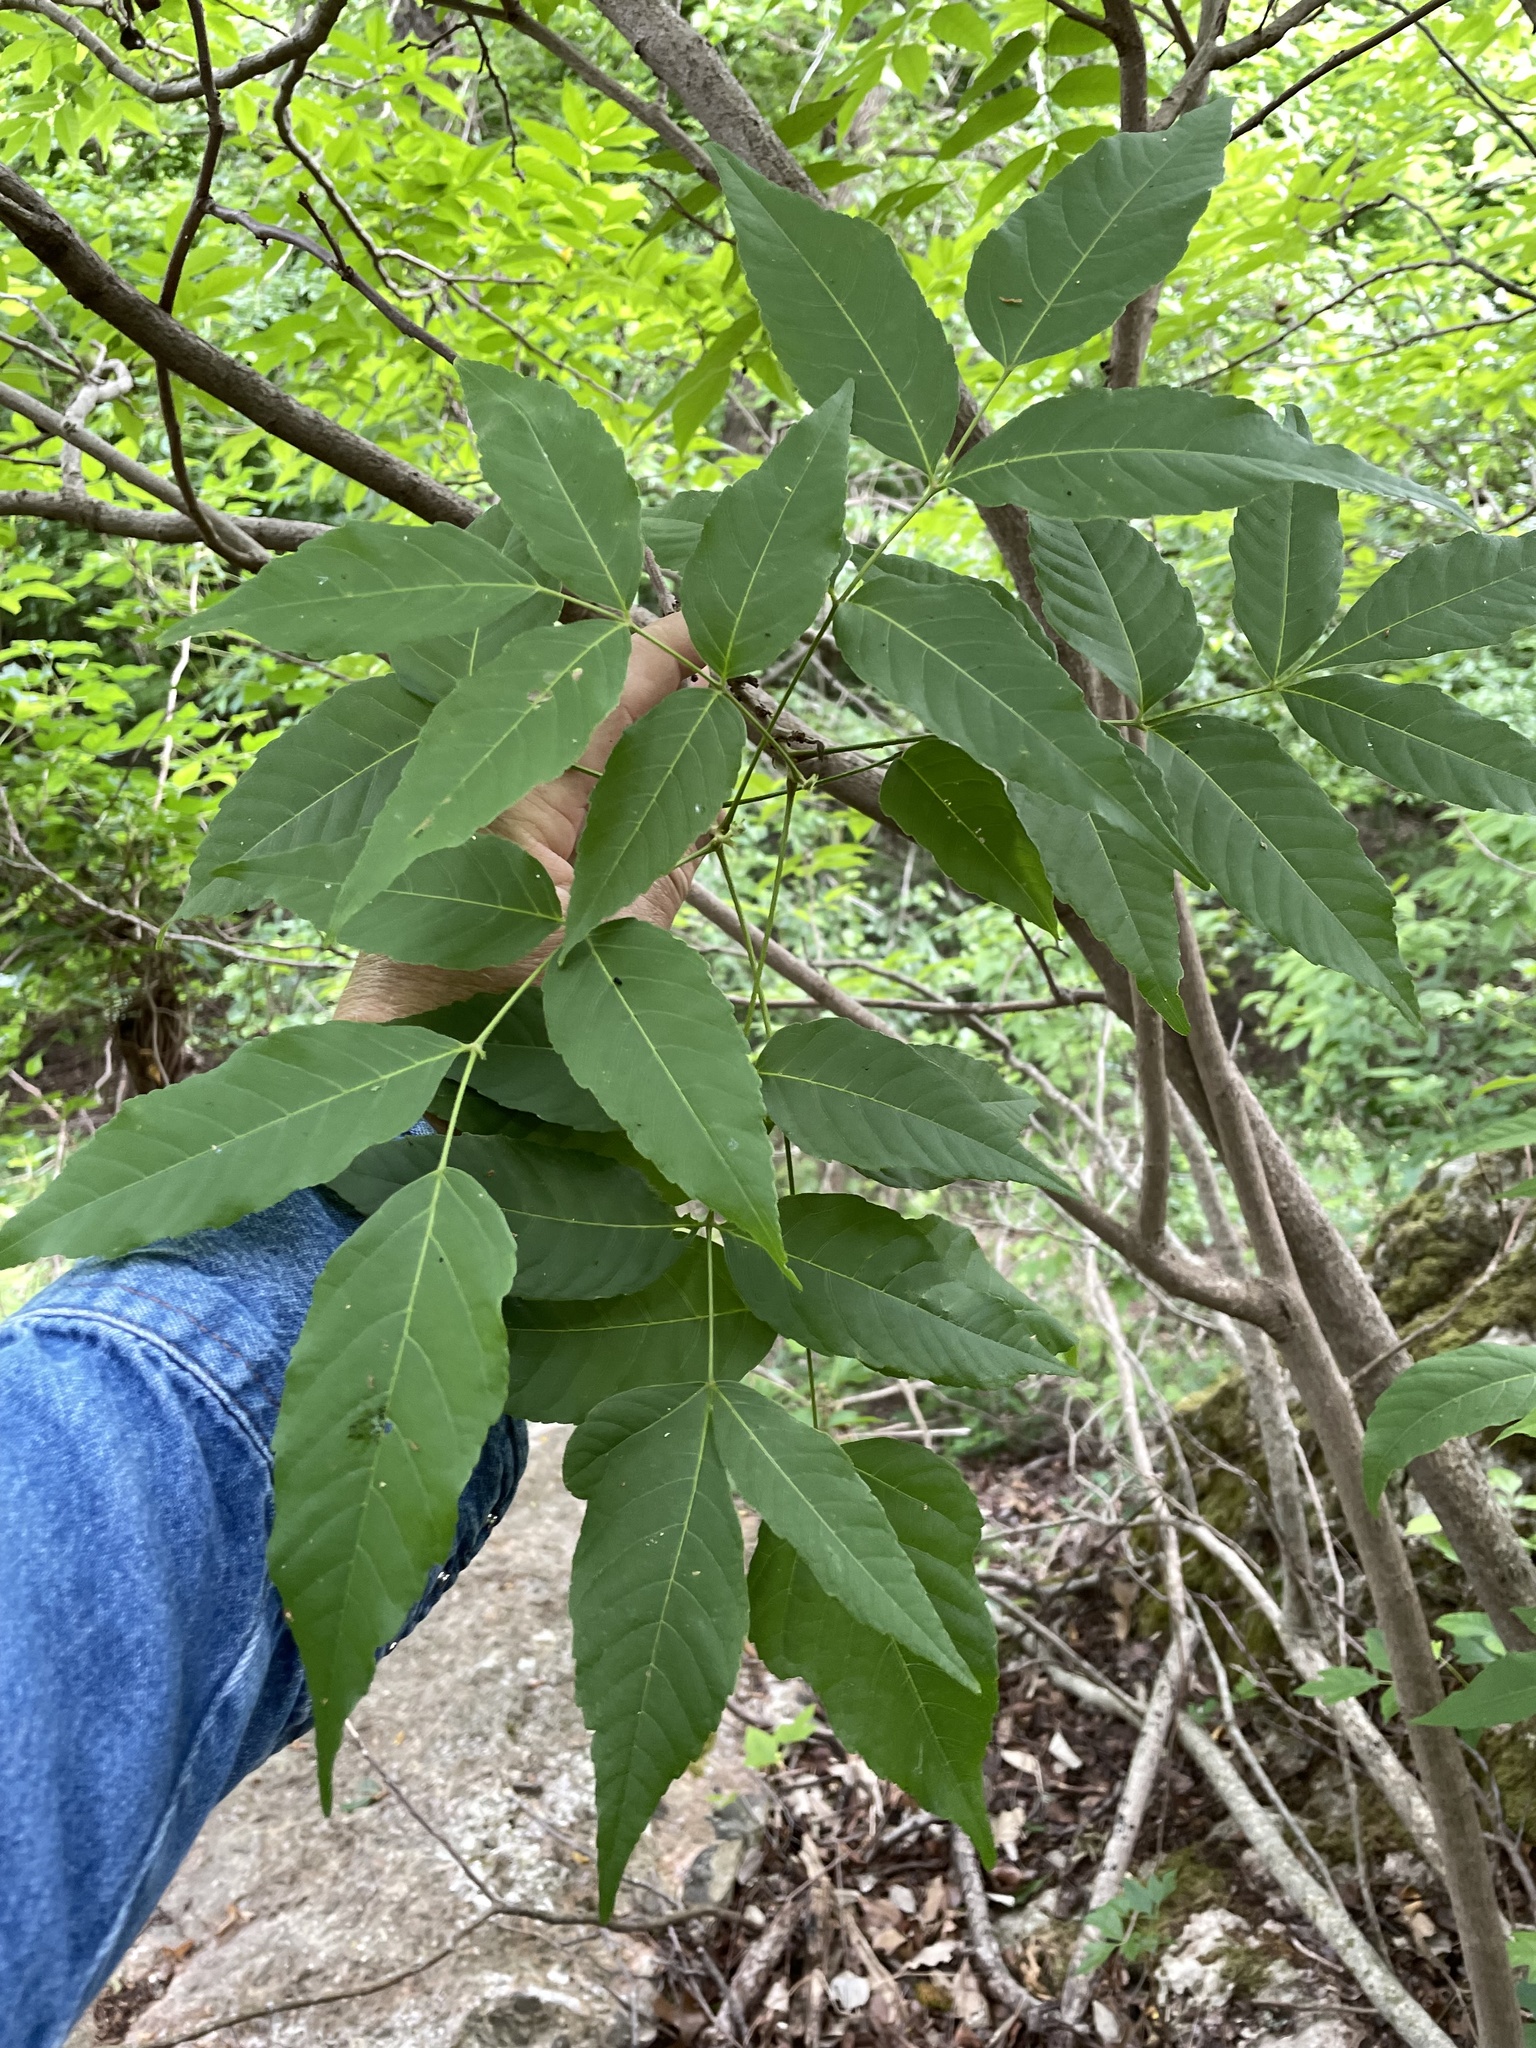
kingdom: Plantae
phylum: Tracheophyta
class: Magnoliopsida
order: Sapindales
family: Sapindaceae
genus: Ungnadia
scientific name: Ungnadia speciosa
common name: Texas-buckeye
